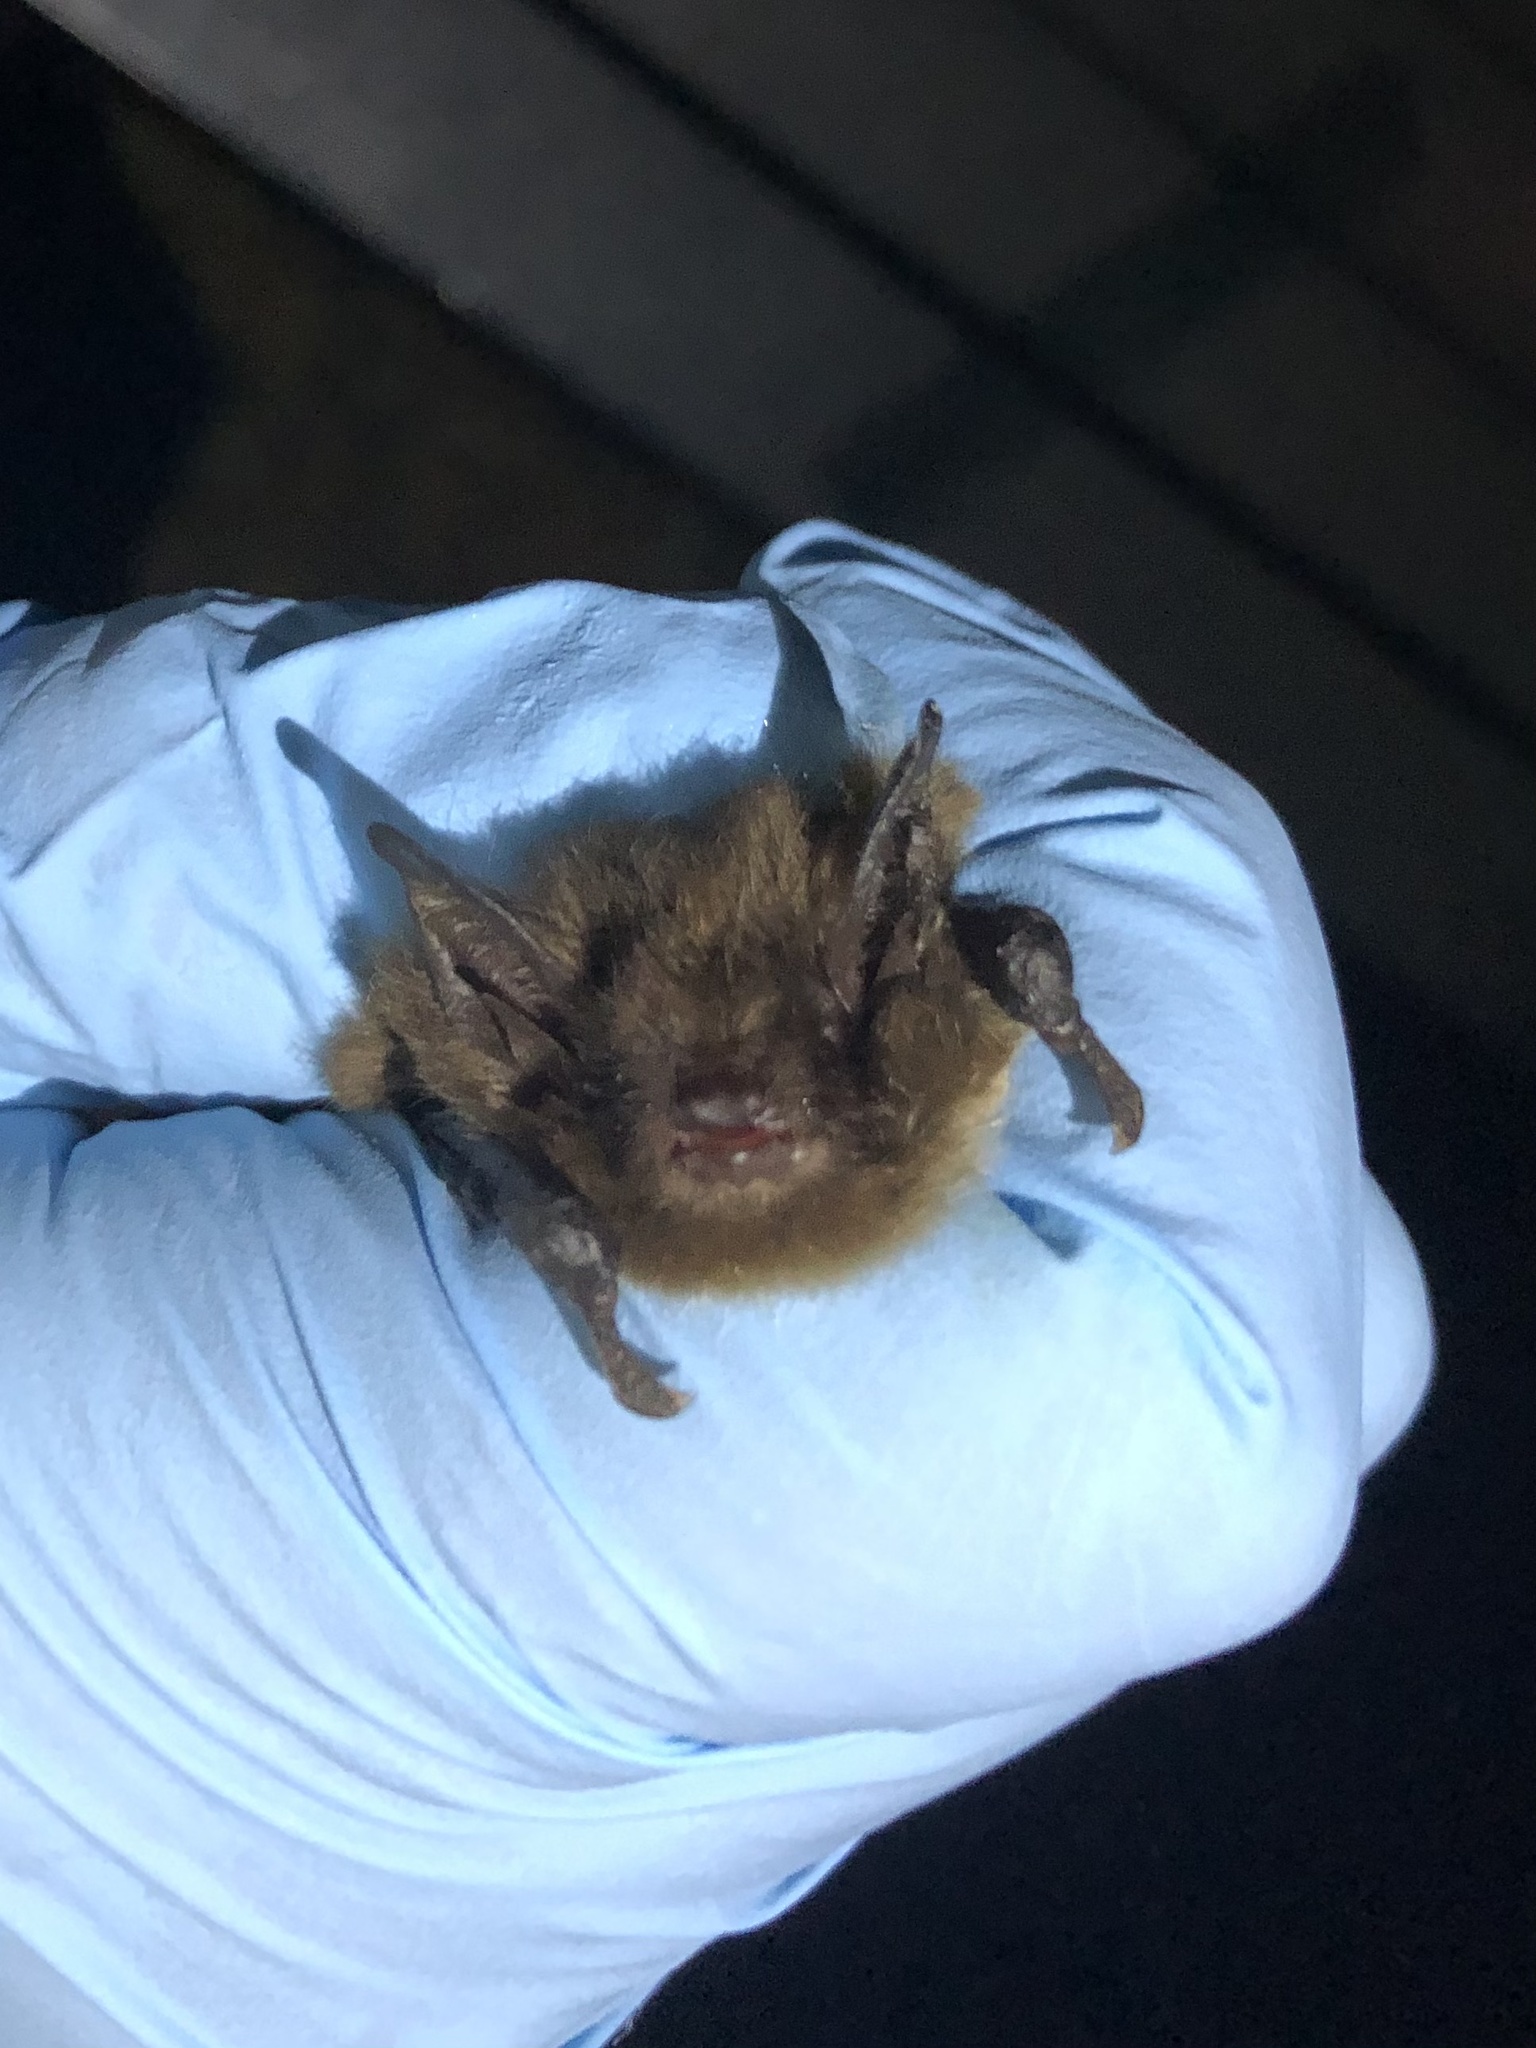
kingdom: Animalia
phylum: Chordata
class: Mammalia
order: Chiroptera
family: Vespertilionidae
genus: Myotis
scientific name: Myotis yumanensis
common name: Yuma myotis
